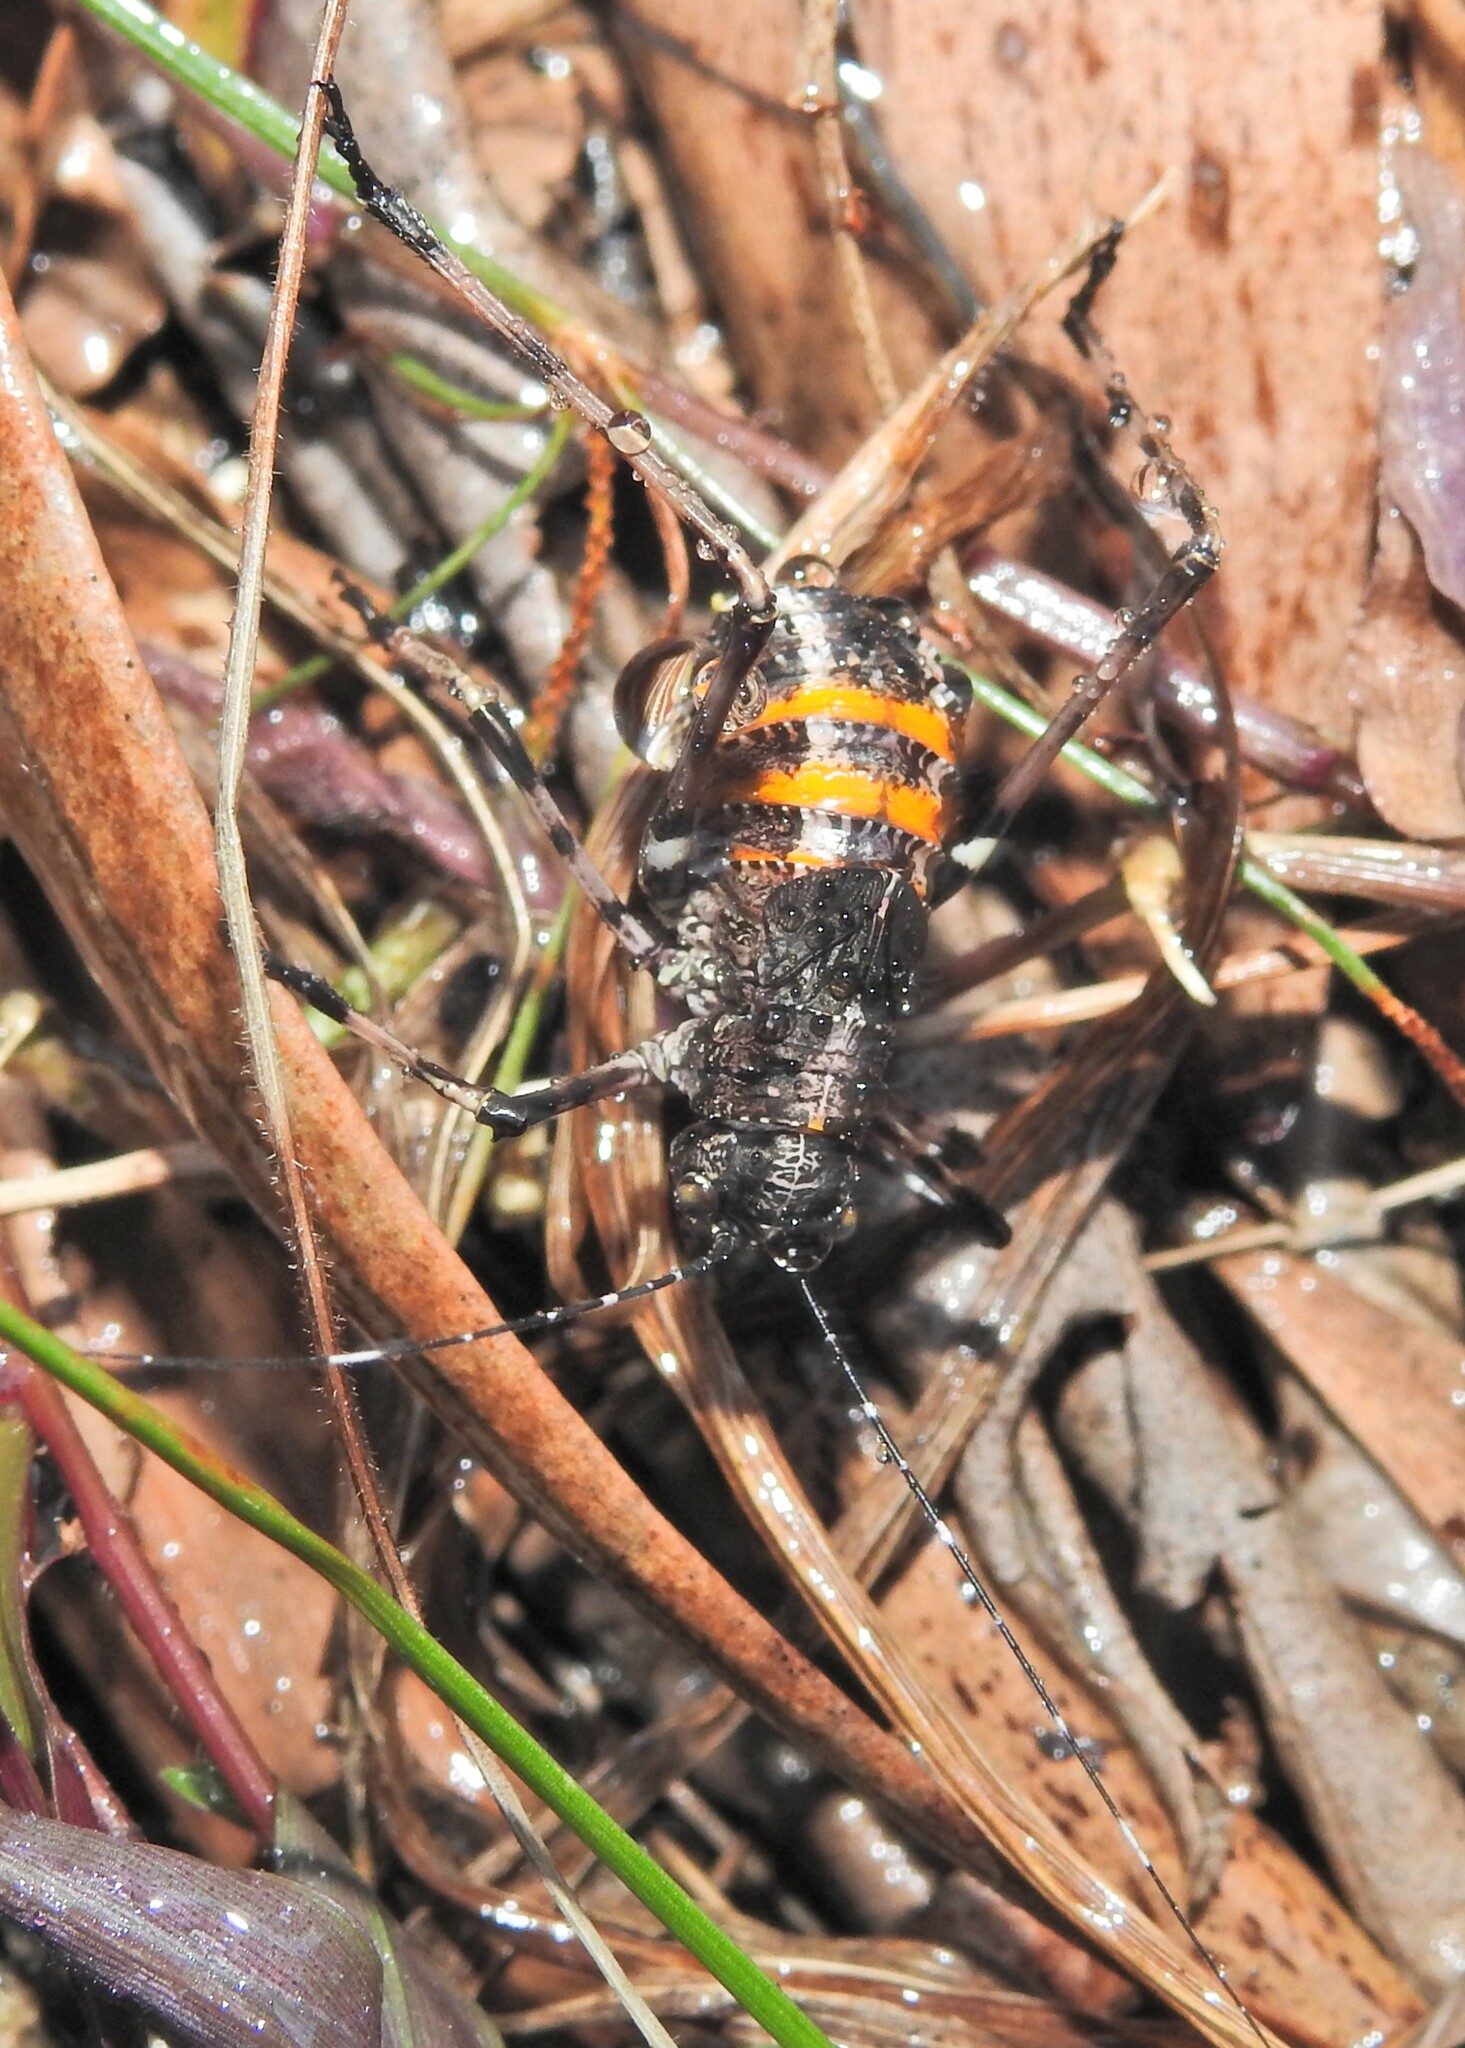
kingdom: Animalia
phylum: Arthropoda
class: Insecta
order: Orthoptera
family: Tettigoniidae
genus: Acripeza
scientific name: Acripeza reticulata
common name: Mountain katydid
